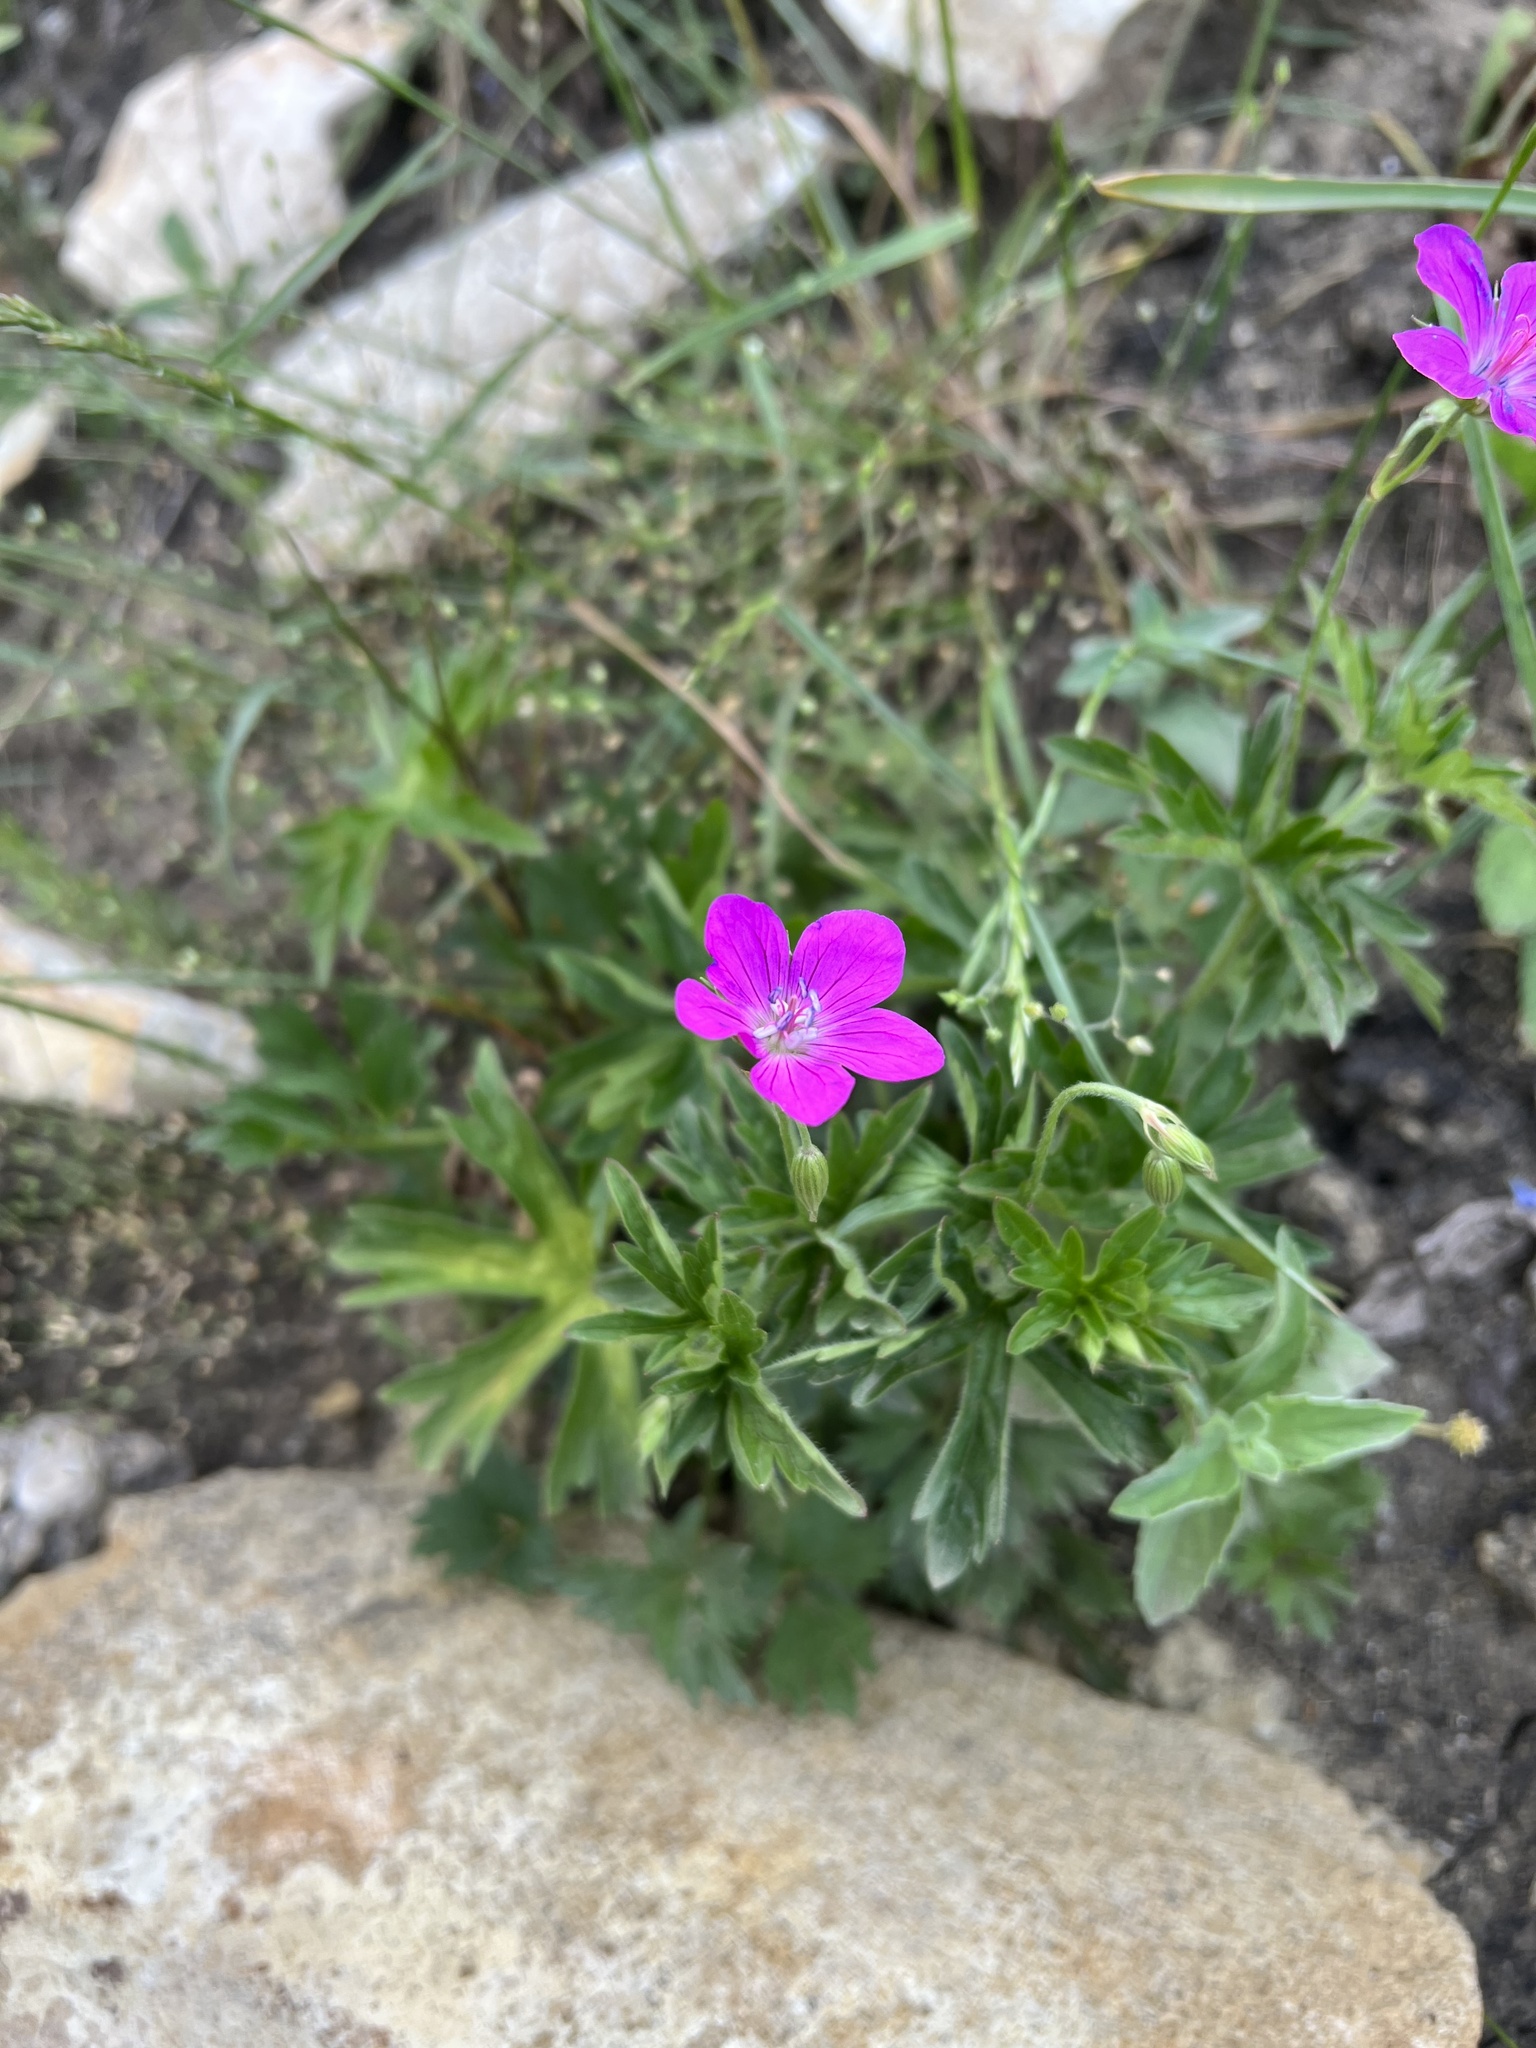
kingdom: Plantae
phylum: Tracheophyta
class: Magnoliopsida
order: Geraniales
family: Geraniaceae
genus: Geranium
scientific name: Geranium sanguineum
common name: Bloody crane's-bill
